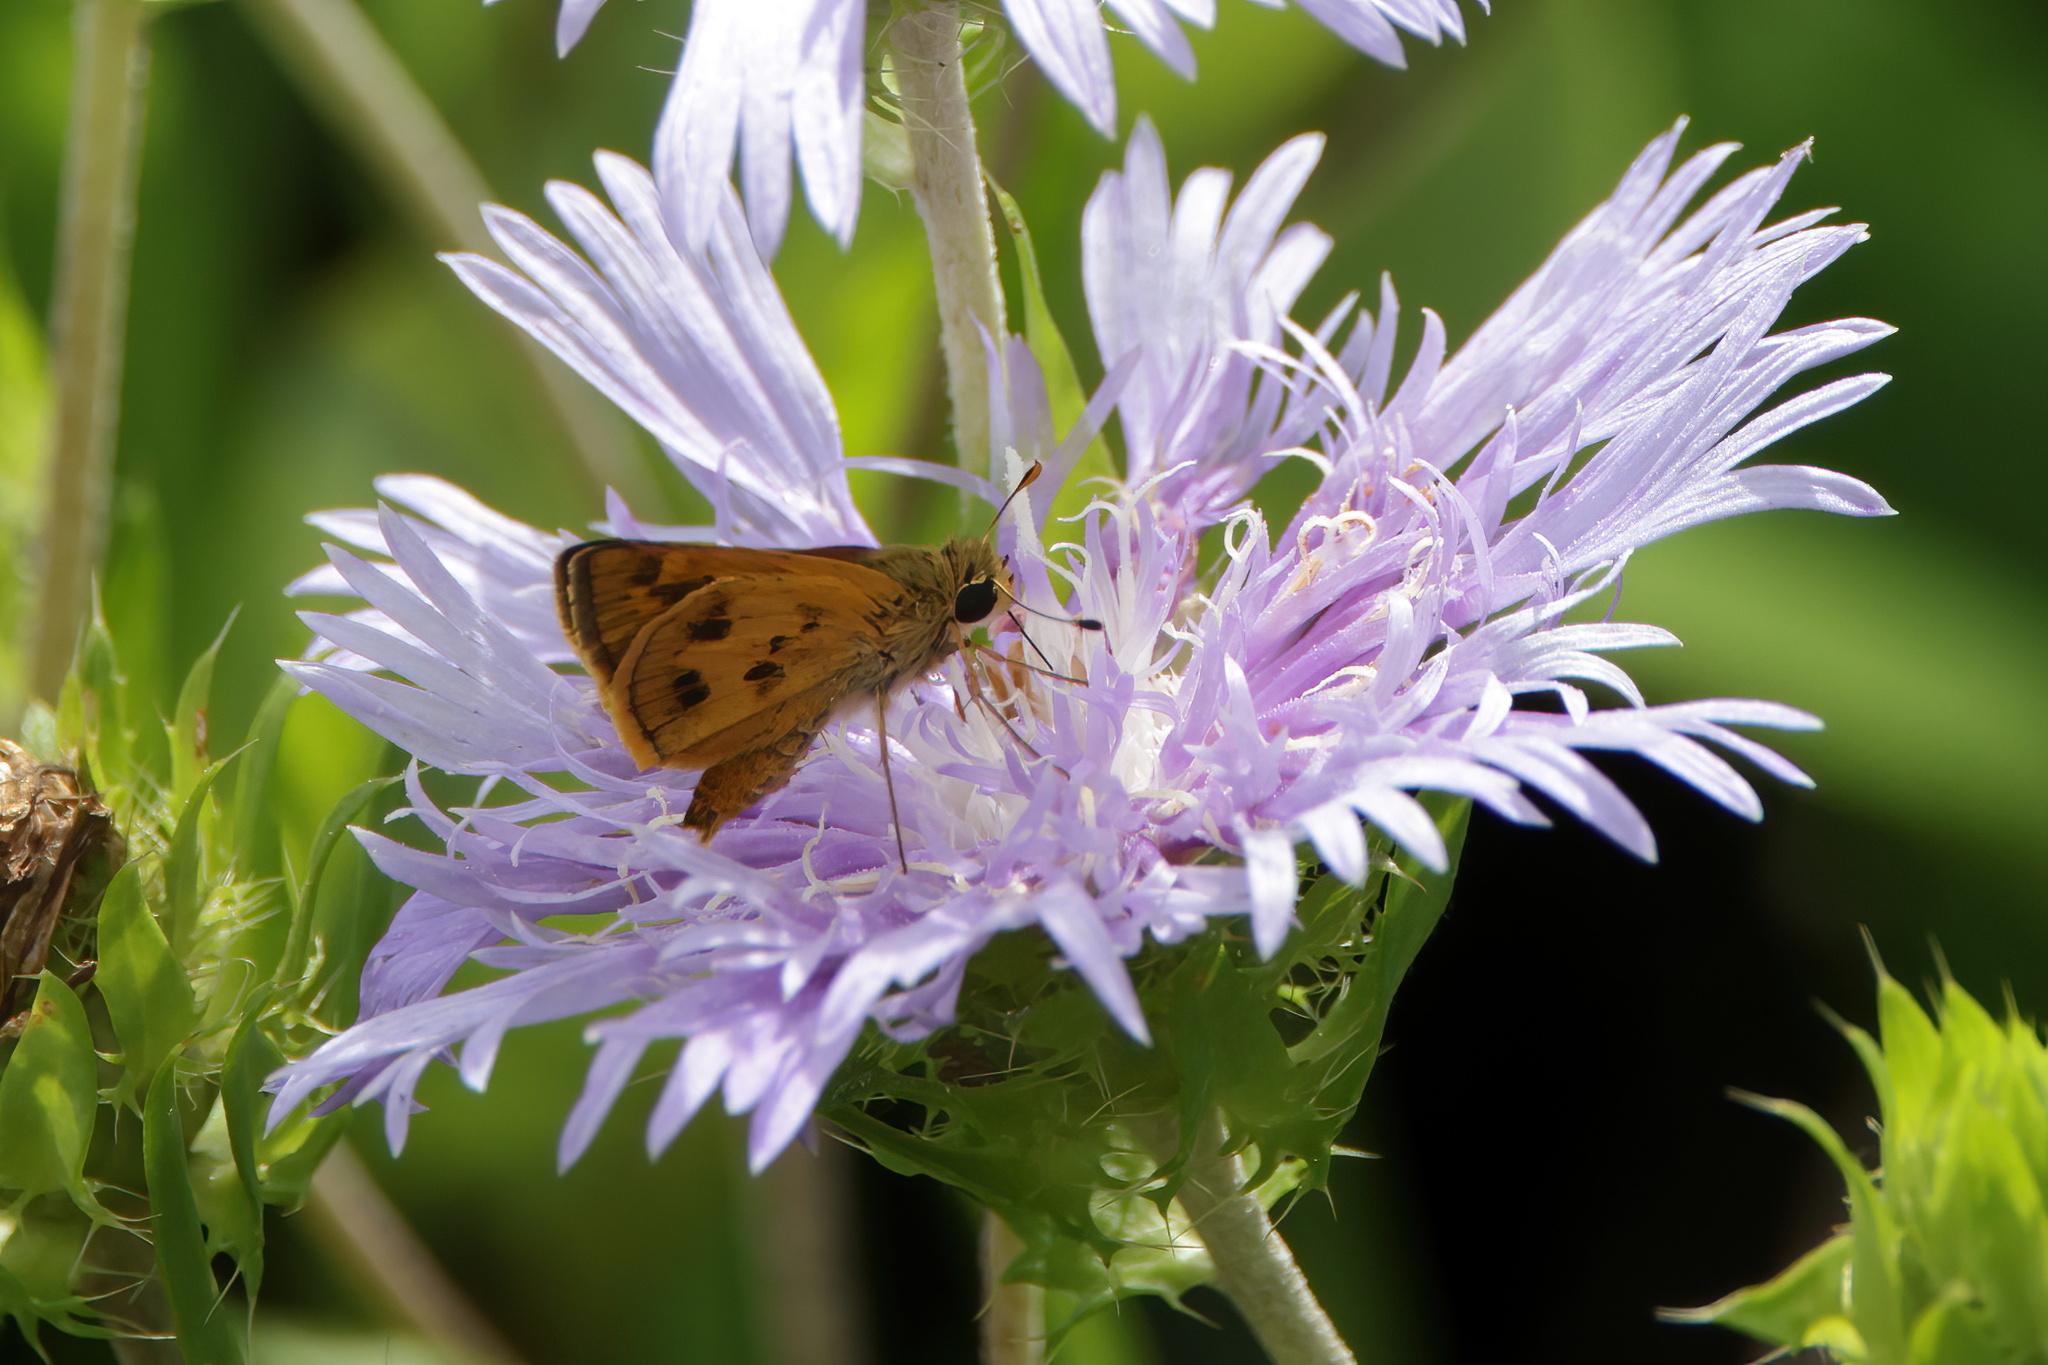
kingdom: Animalia
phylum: Arthropoda
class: Insecta
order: Lepidoptera
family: Hesperiidae
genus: Polites
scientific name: Polites vibex
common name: Whirlabout
